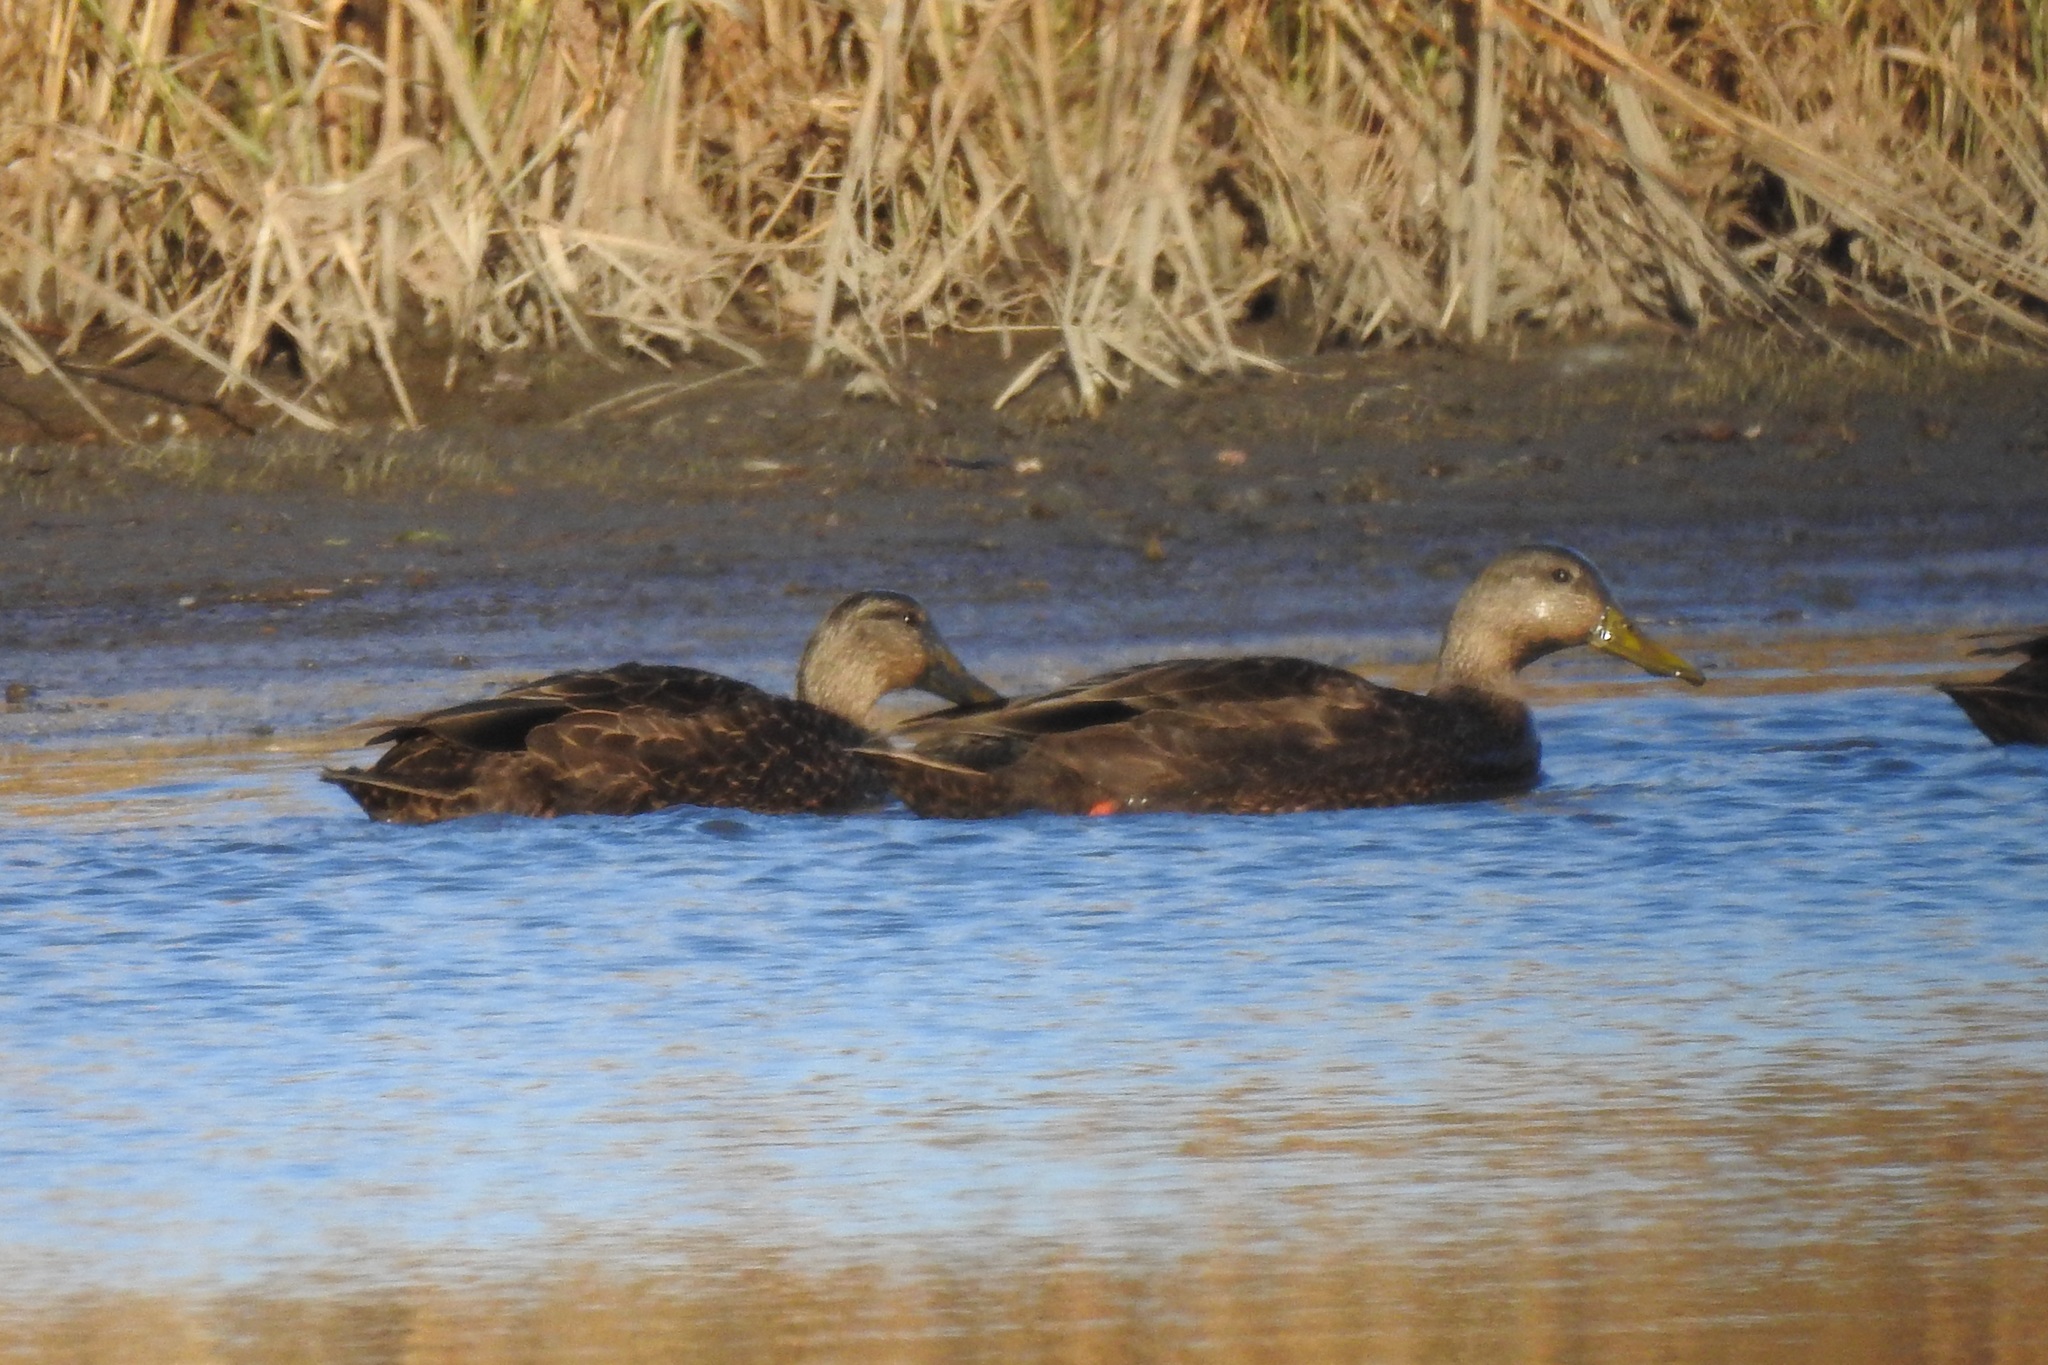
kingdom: Animalia
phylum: Chordata
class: Aves
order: Anseriformes
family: Anatidae
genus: Anas
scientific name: Anas rubripes
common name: American black duck
